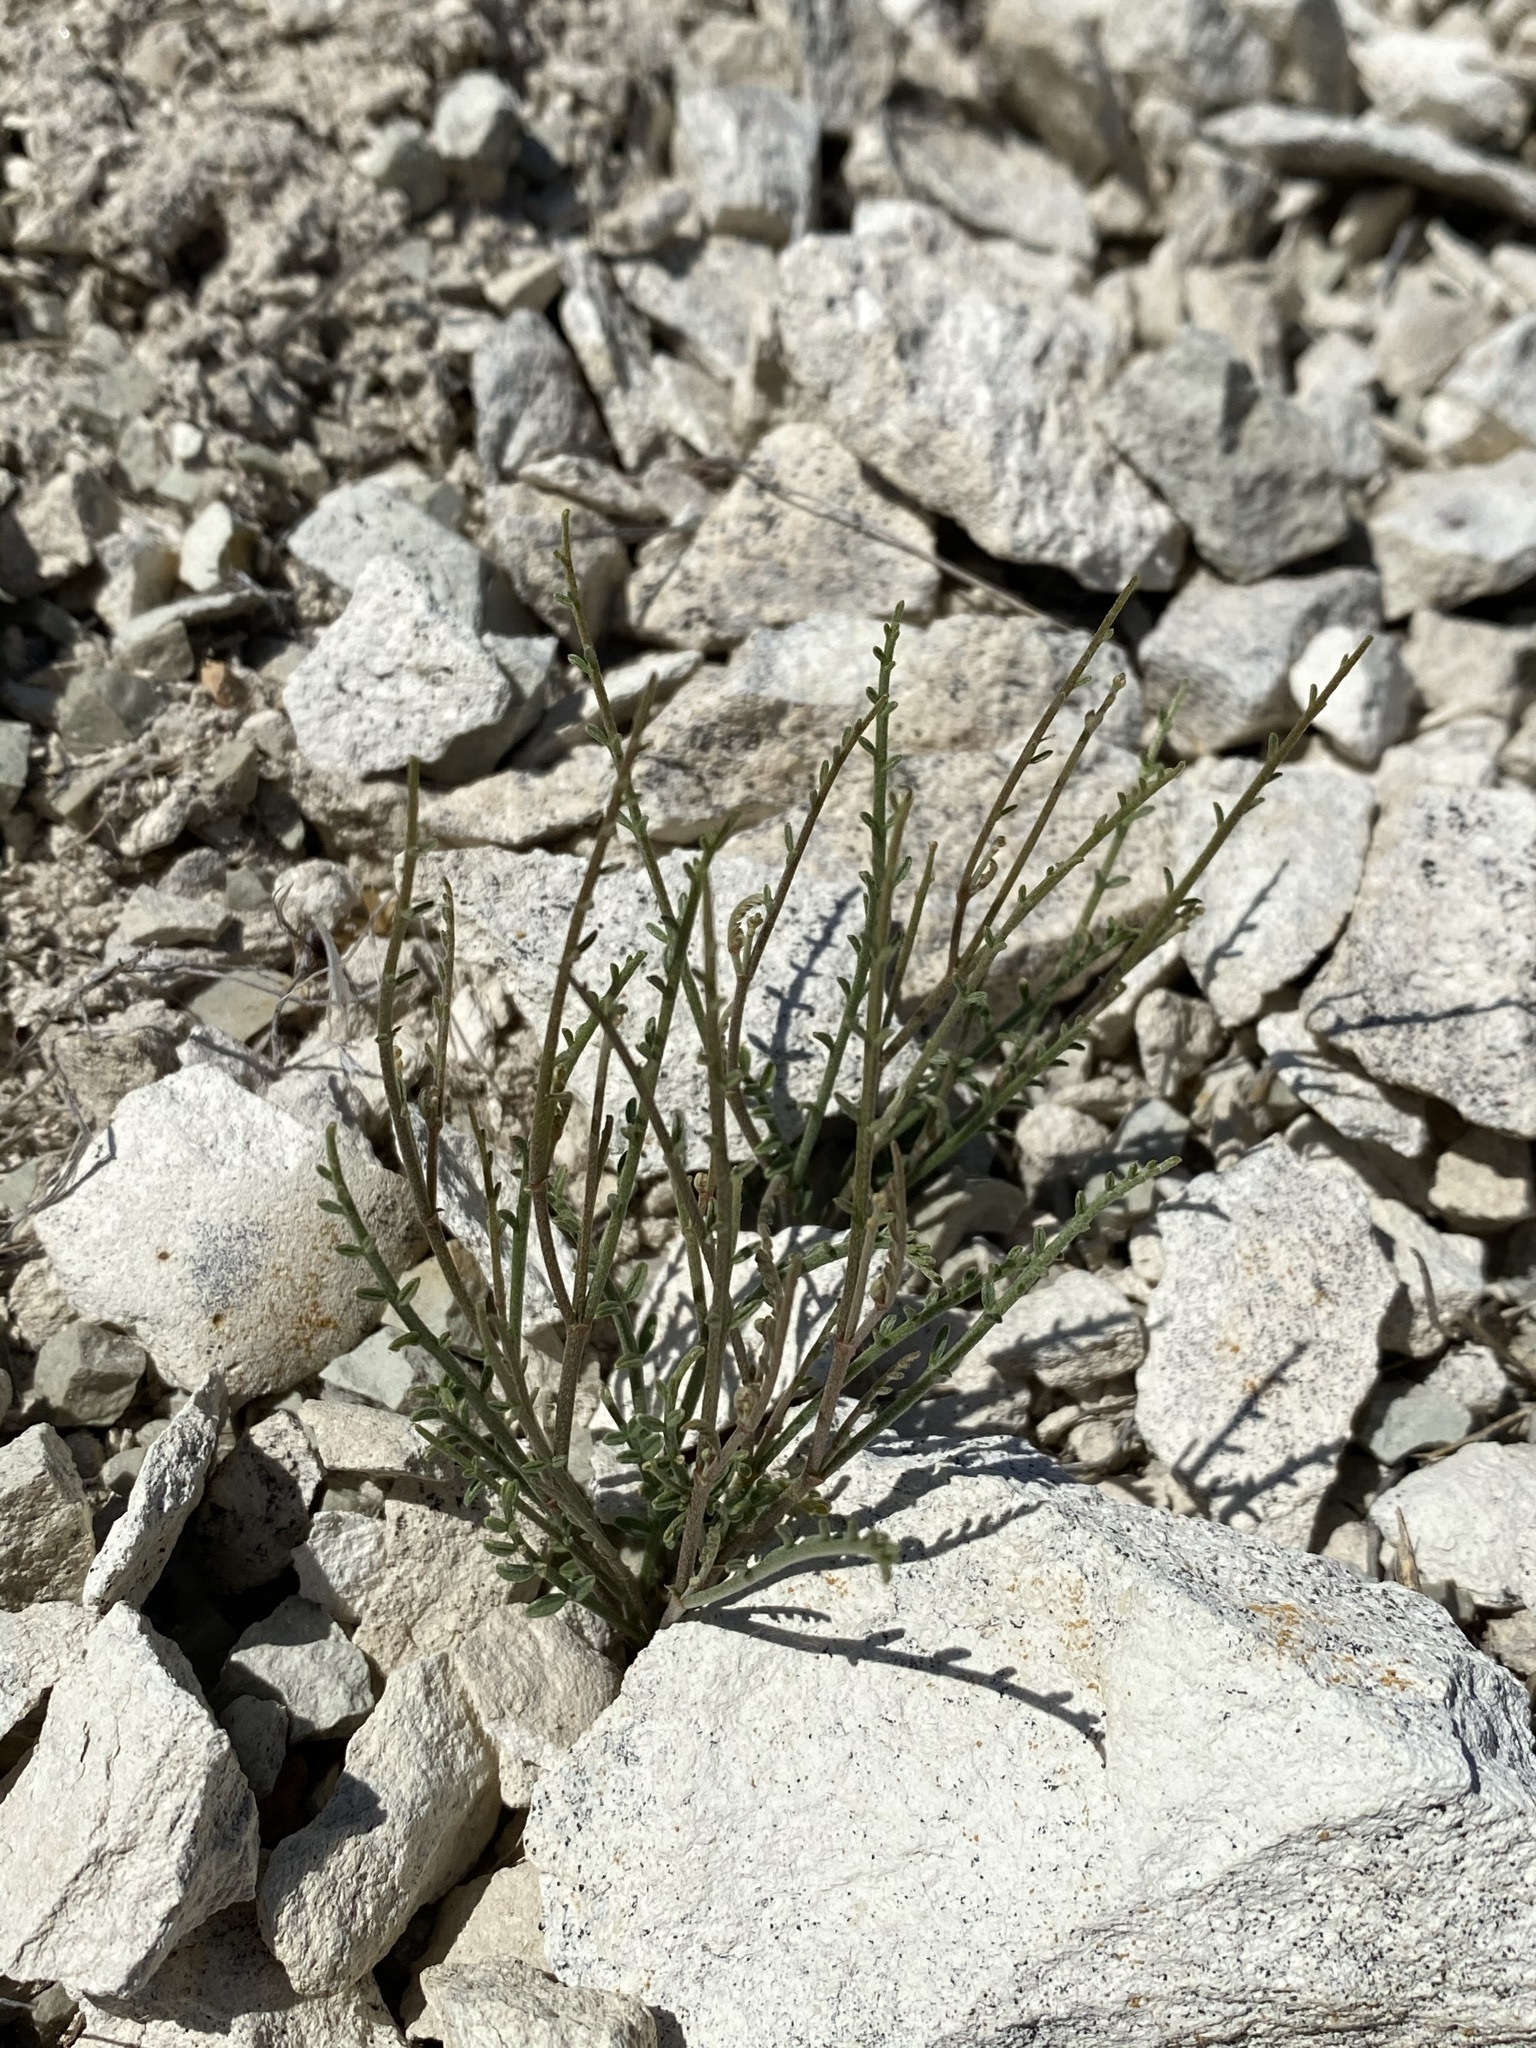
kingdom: Plantae
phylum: Tracheophyta
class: Magnoliopsida
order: Fabales
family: Fabaceae
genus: Astragalus
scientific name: Astragalus sterilis
